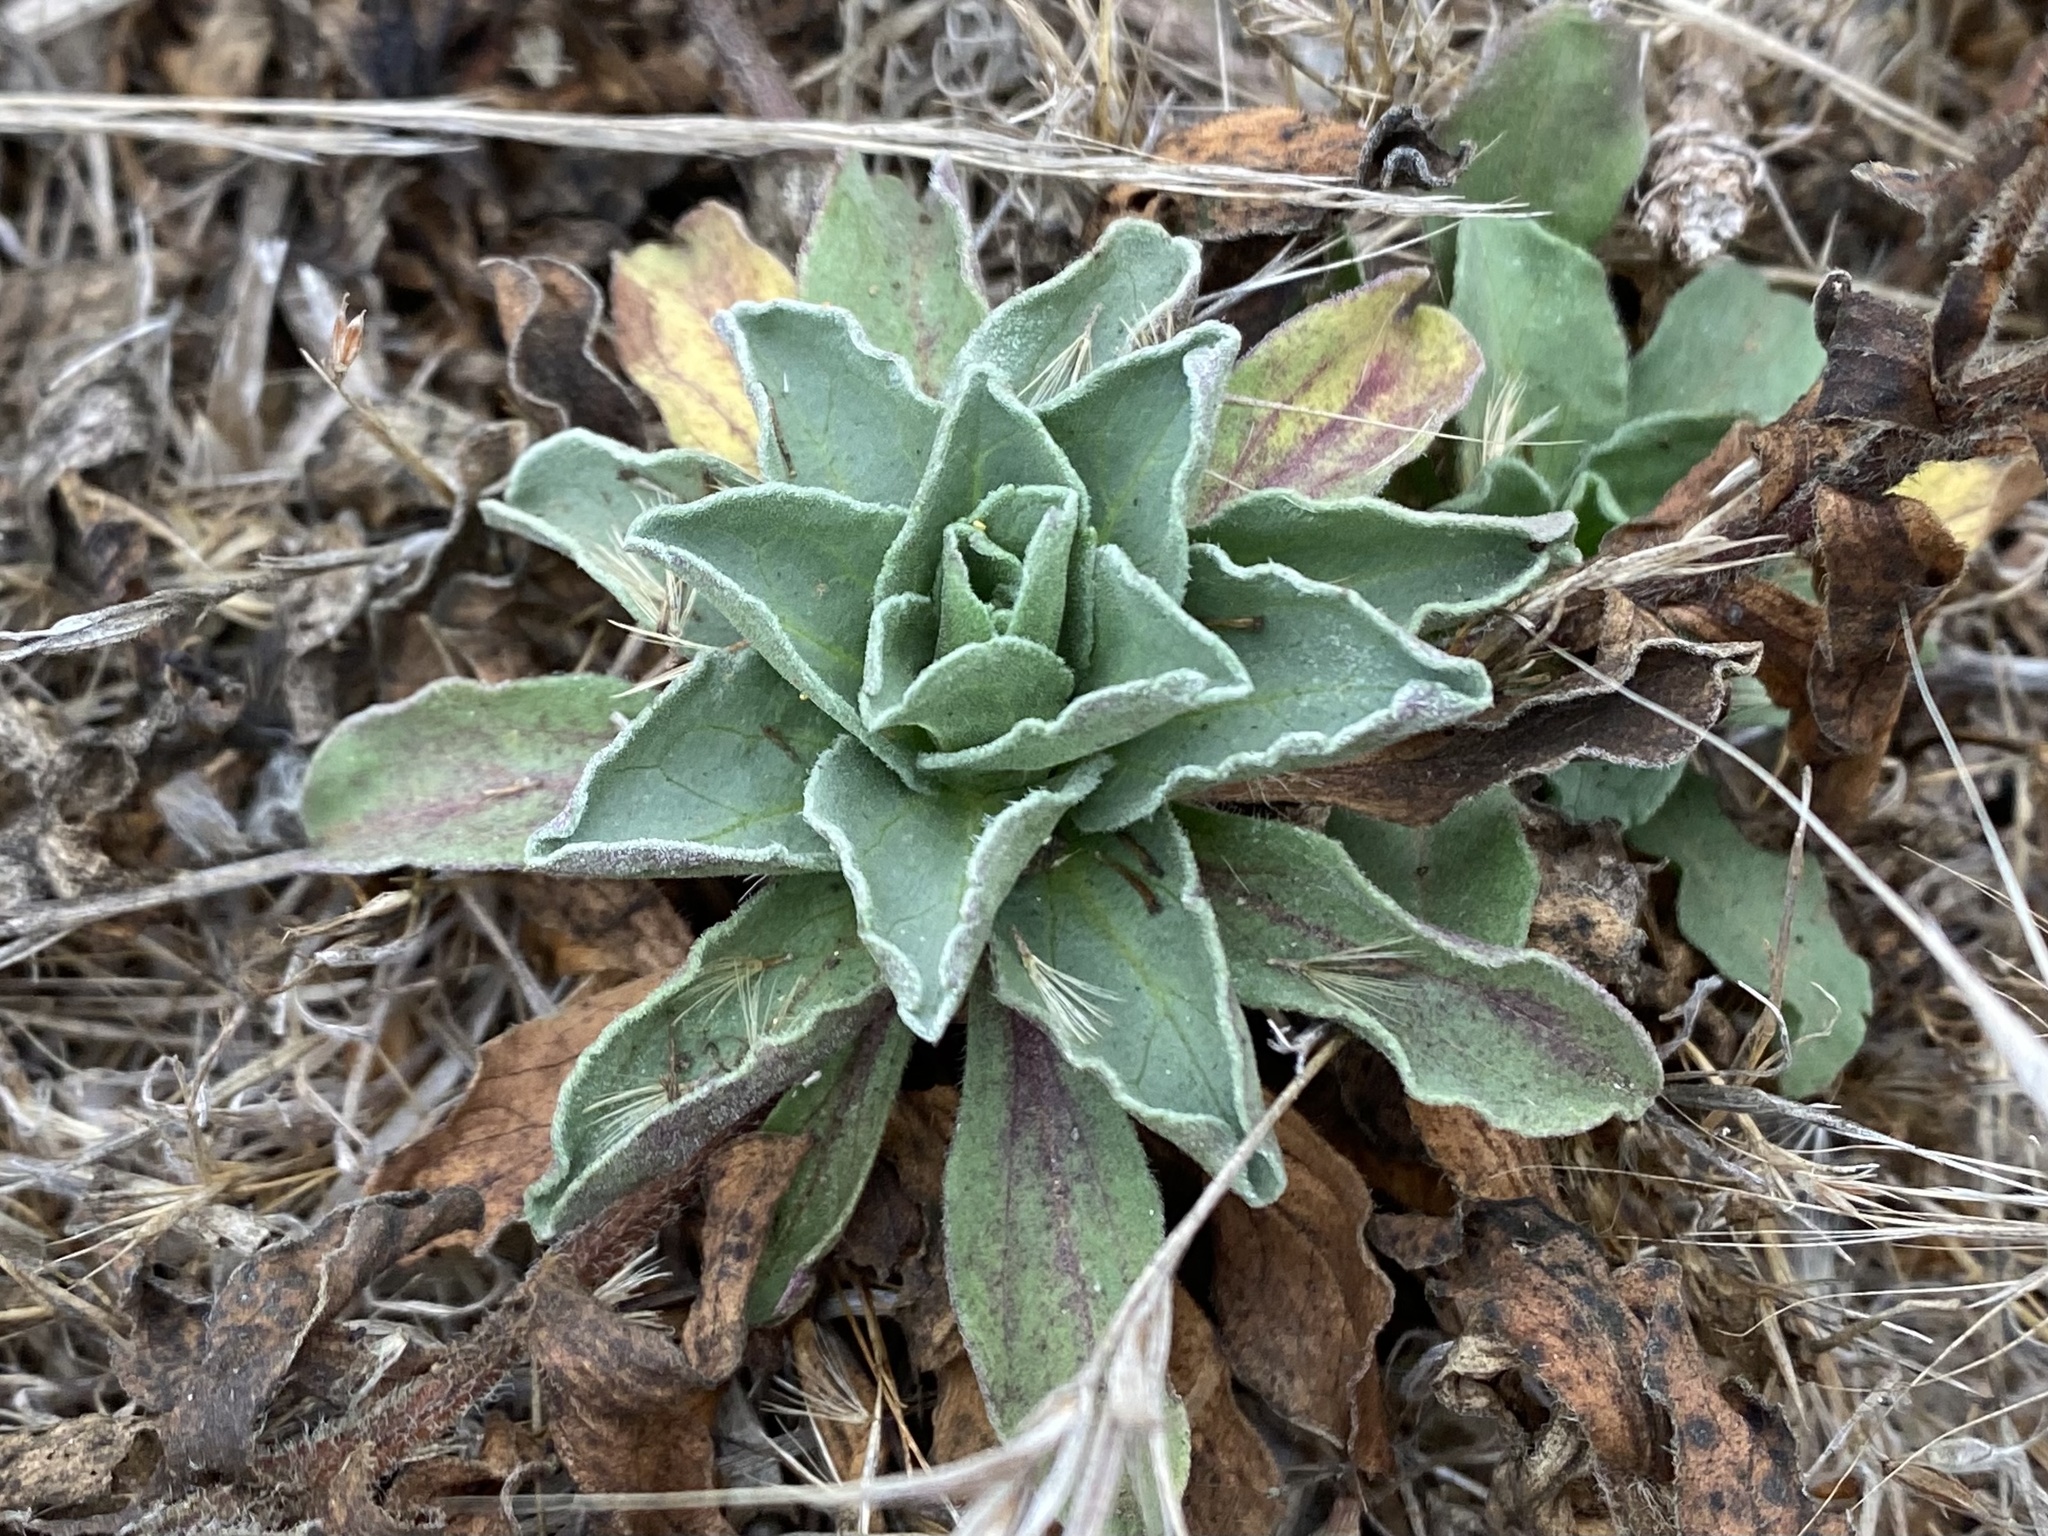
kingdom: Plantae
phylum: Tracheophyta
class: Magnoliopsida
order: Asterales
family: Asteraceae
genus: Erigeron
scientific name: Erigeron glaucus
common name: Seaside daisy
